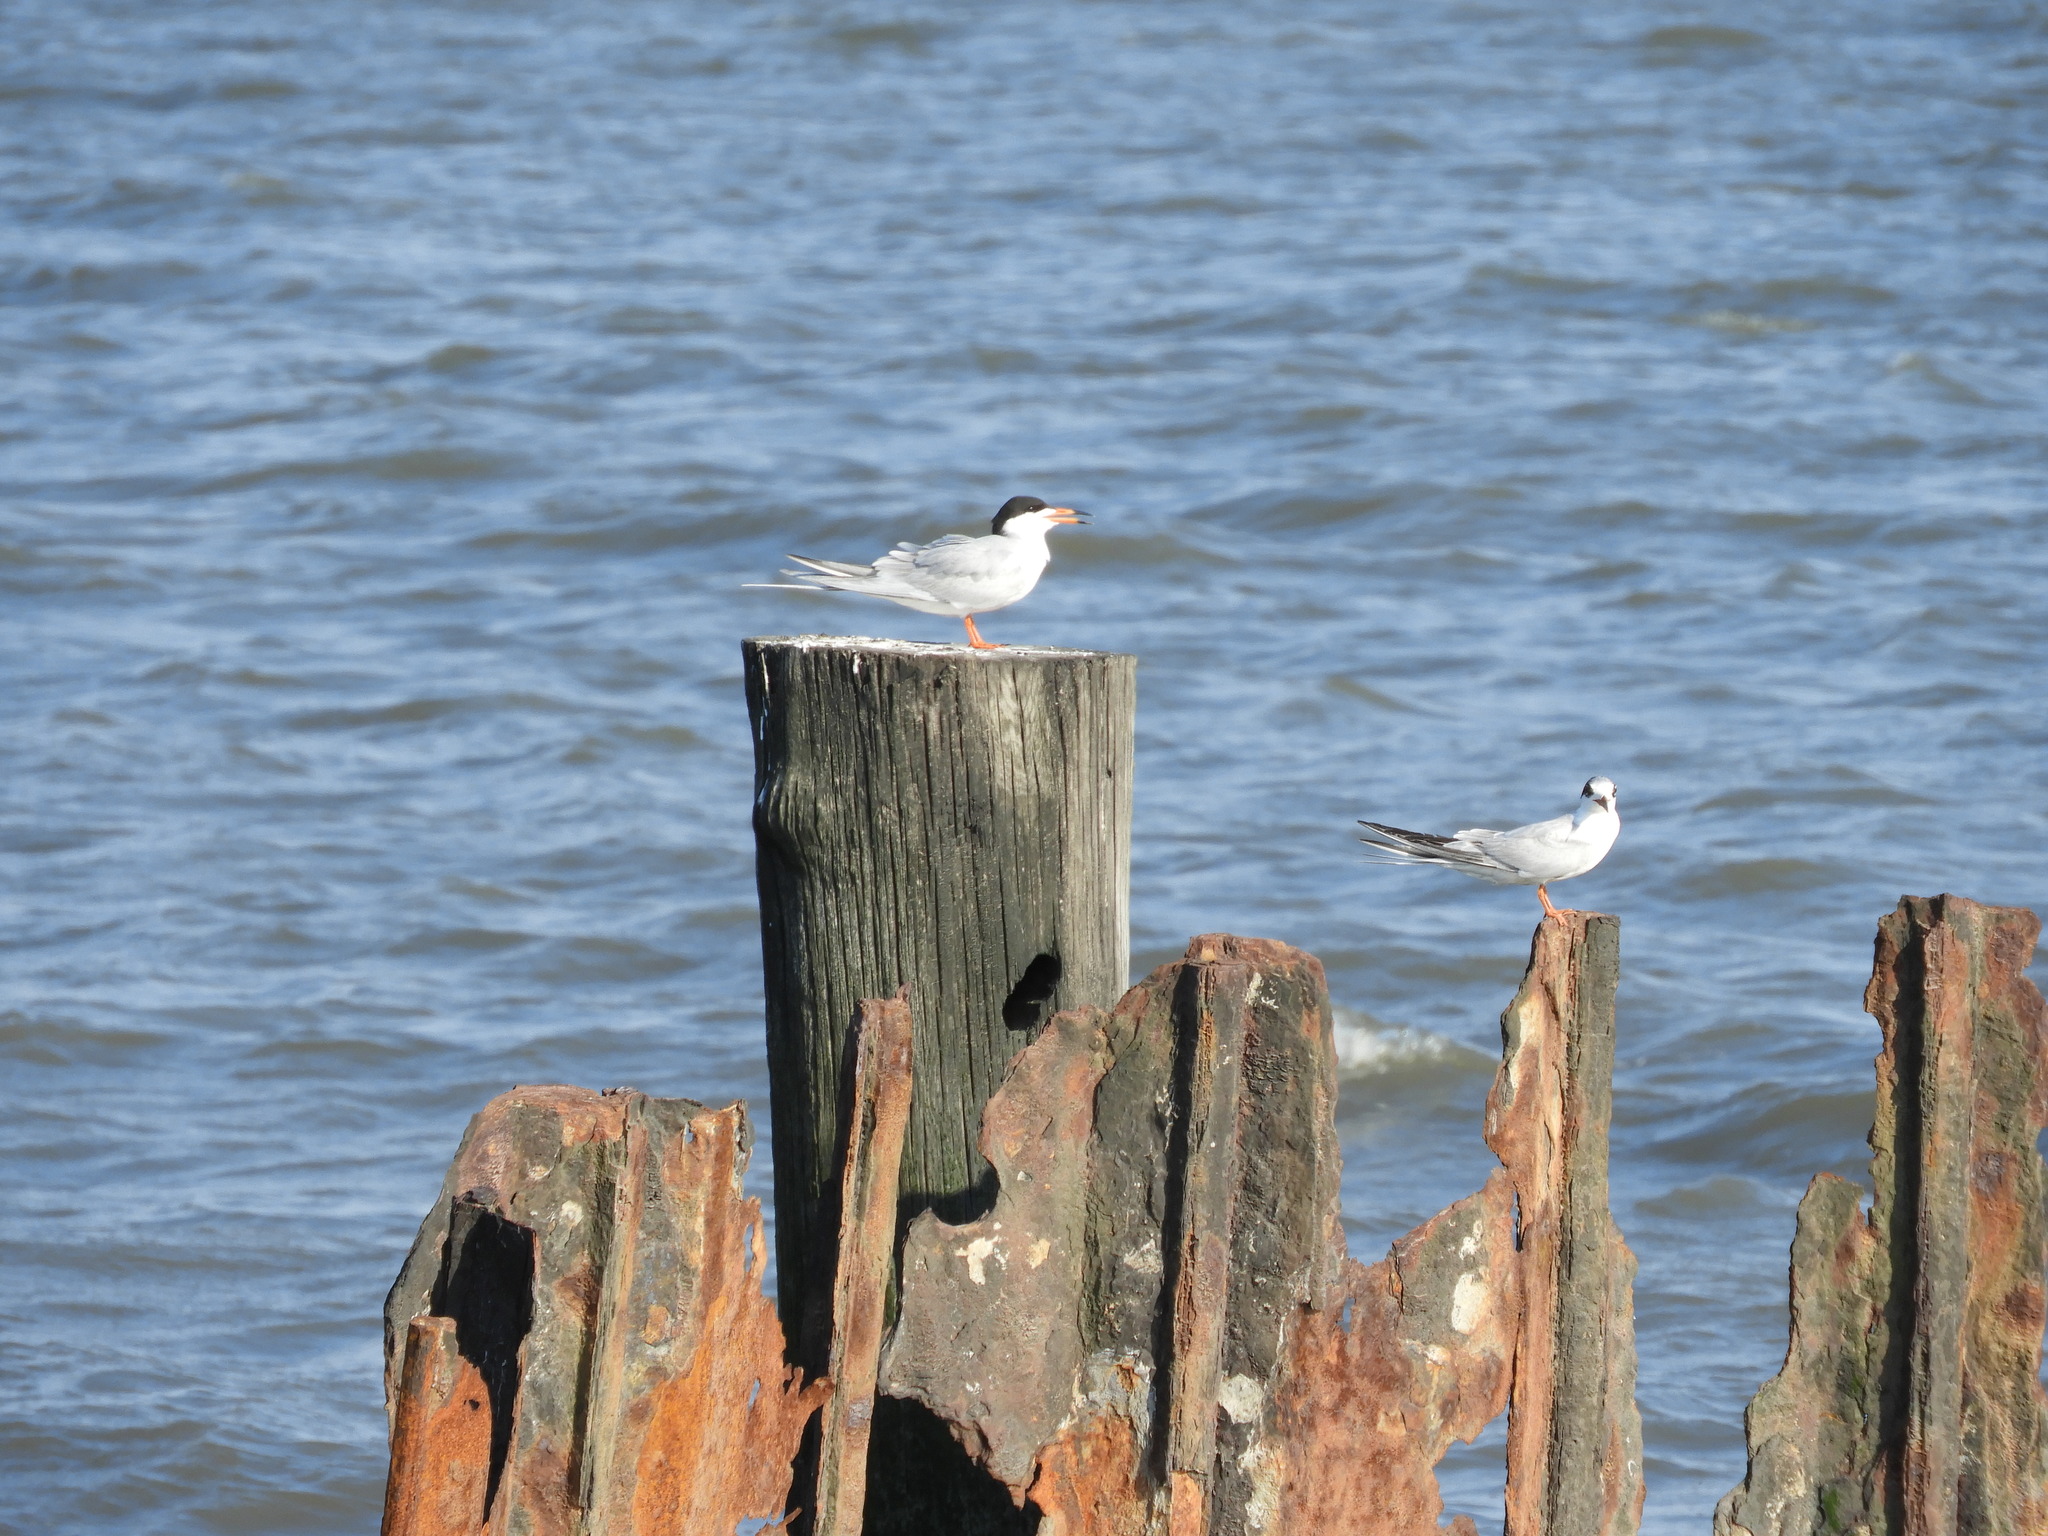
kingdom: Animalia
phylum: Chordata
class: Aves
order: Charadriiformes
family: Laridae
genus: Sterna
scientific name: Sterna forsteri
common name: Forster's tern
